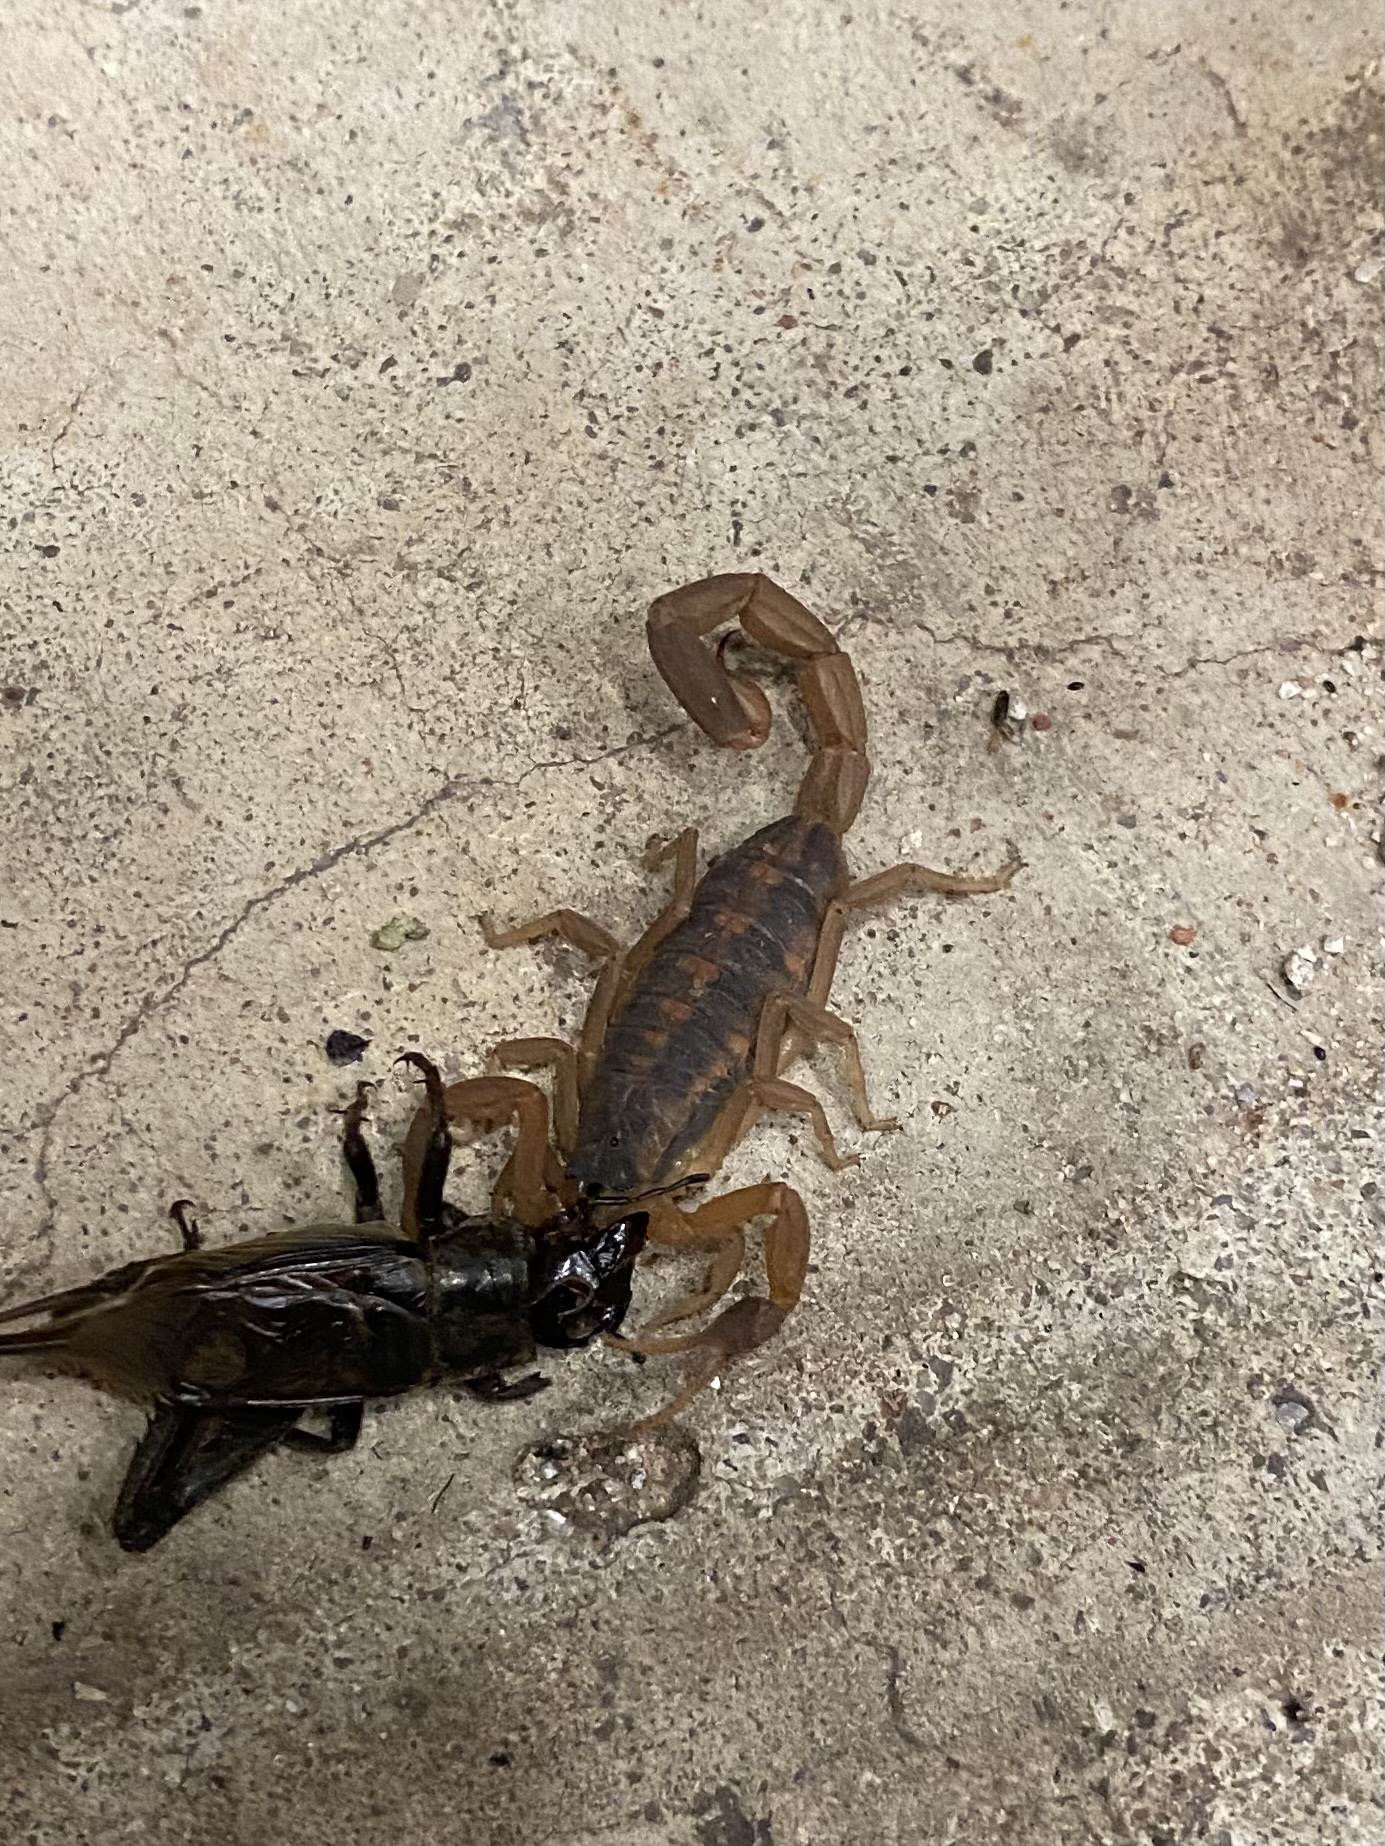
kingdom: Animalia
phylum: Arthropoda
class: Arachnida
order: Scorpiones
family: Buthidae
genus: Centruroides
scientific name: Centruroides vittatus
